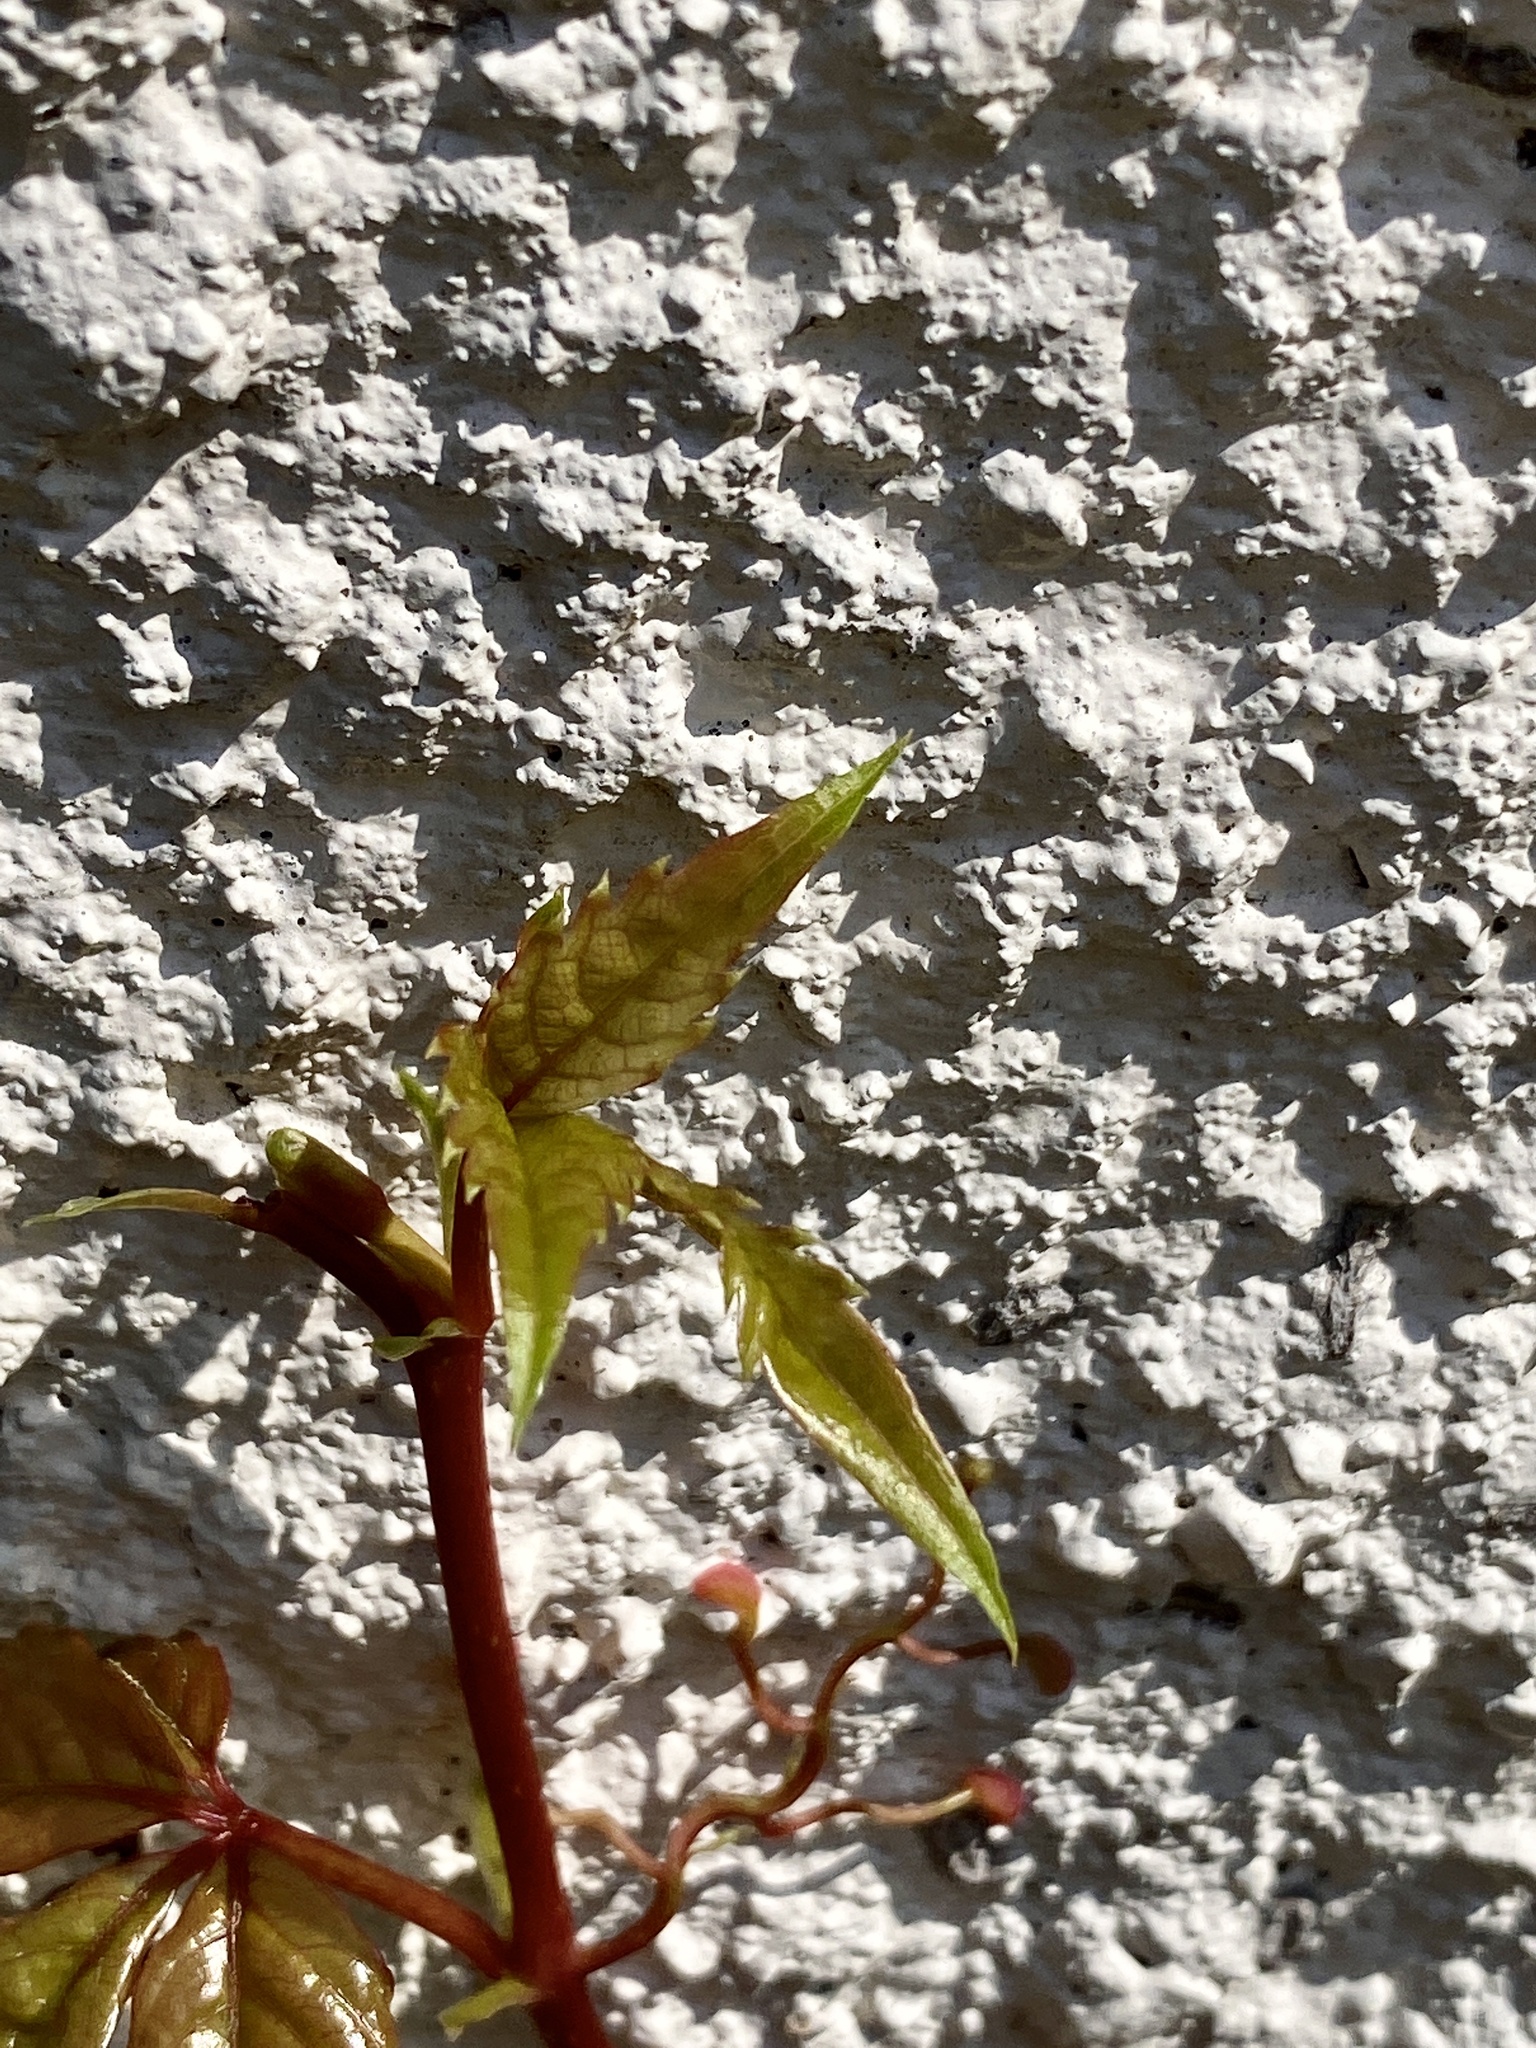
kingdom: Plantae
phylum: Tracheophyta
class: Magnoliopsida
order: Vitales
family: Vitaceae
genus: Parthenocissus
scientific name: Parthenocissus quinquefolia
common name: Virginia-creeper
